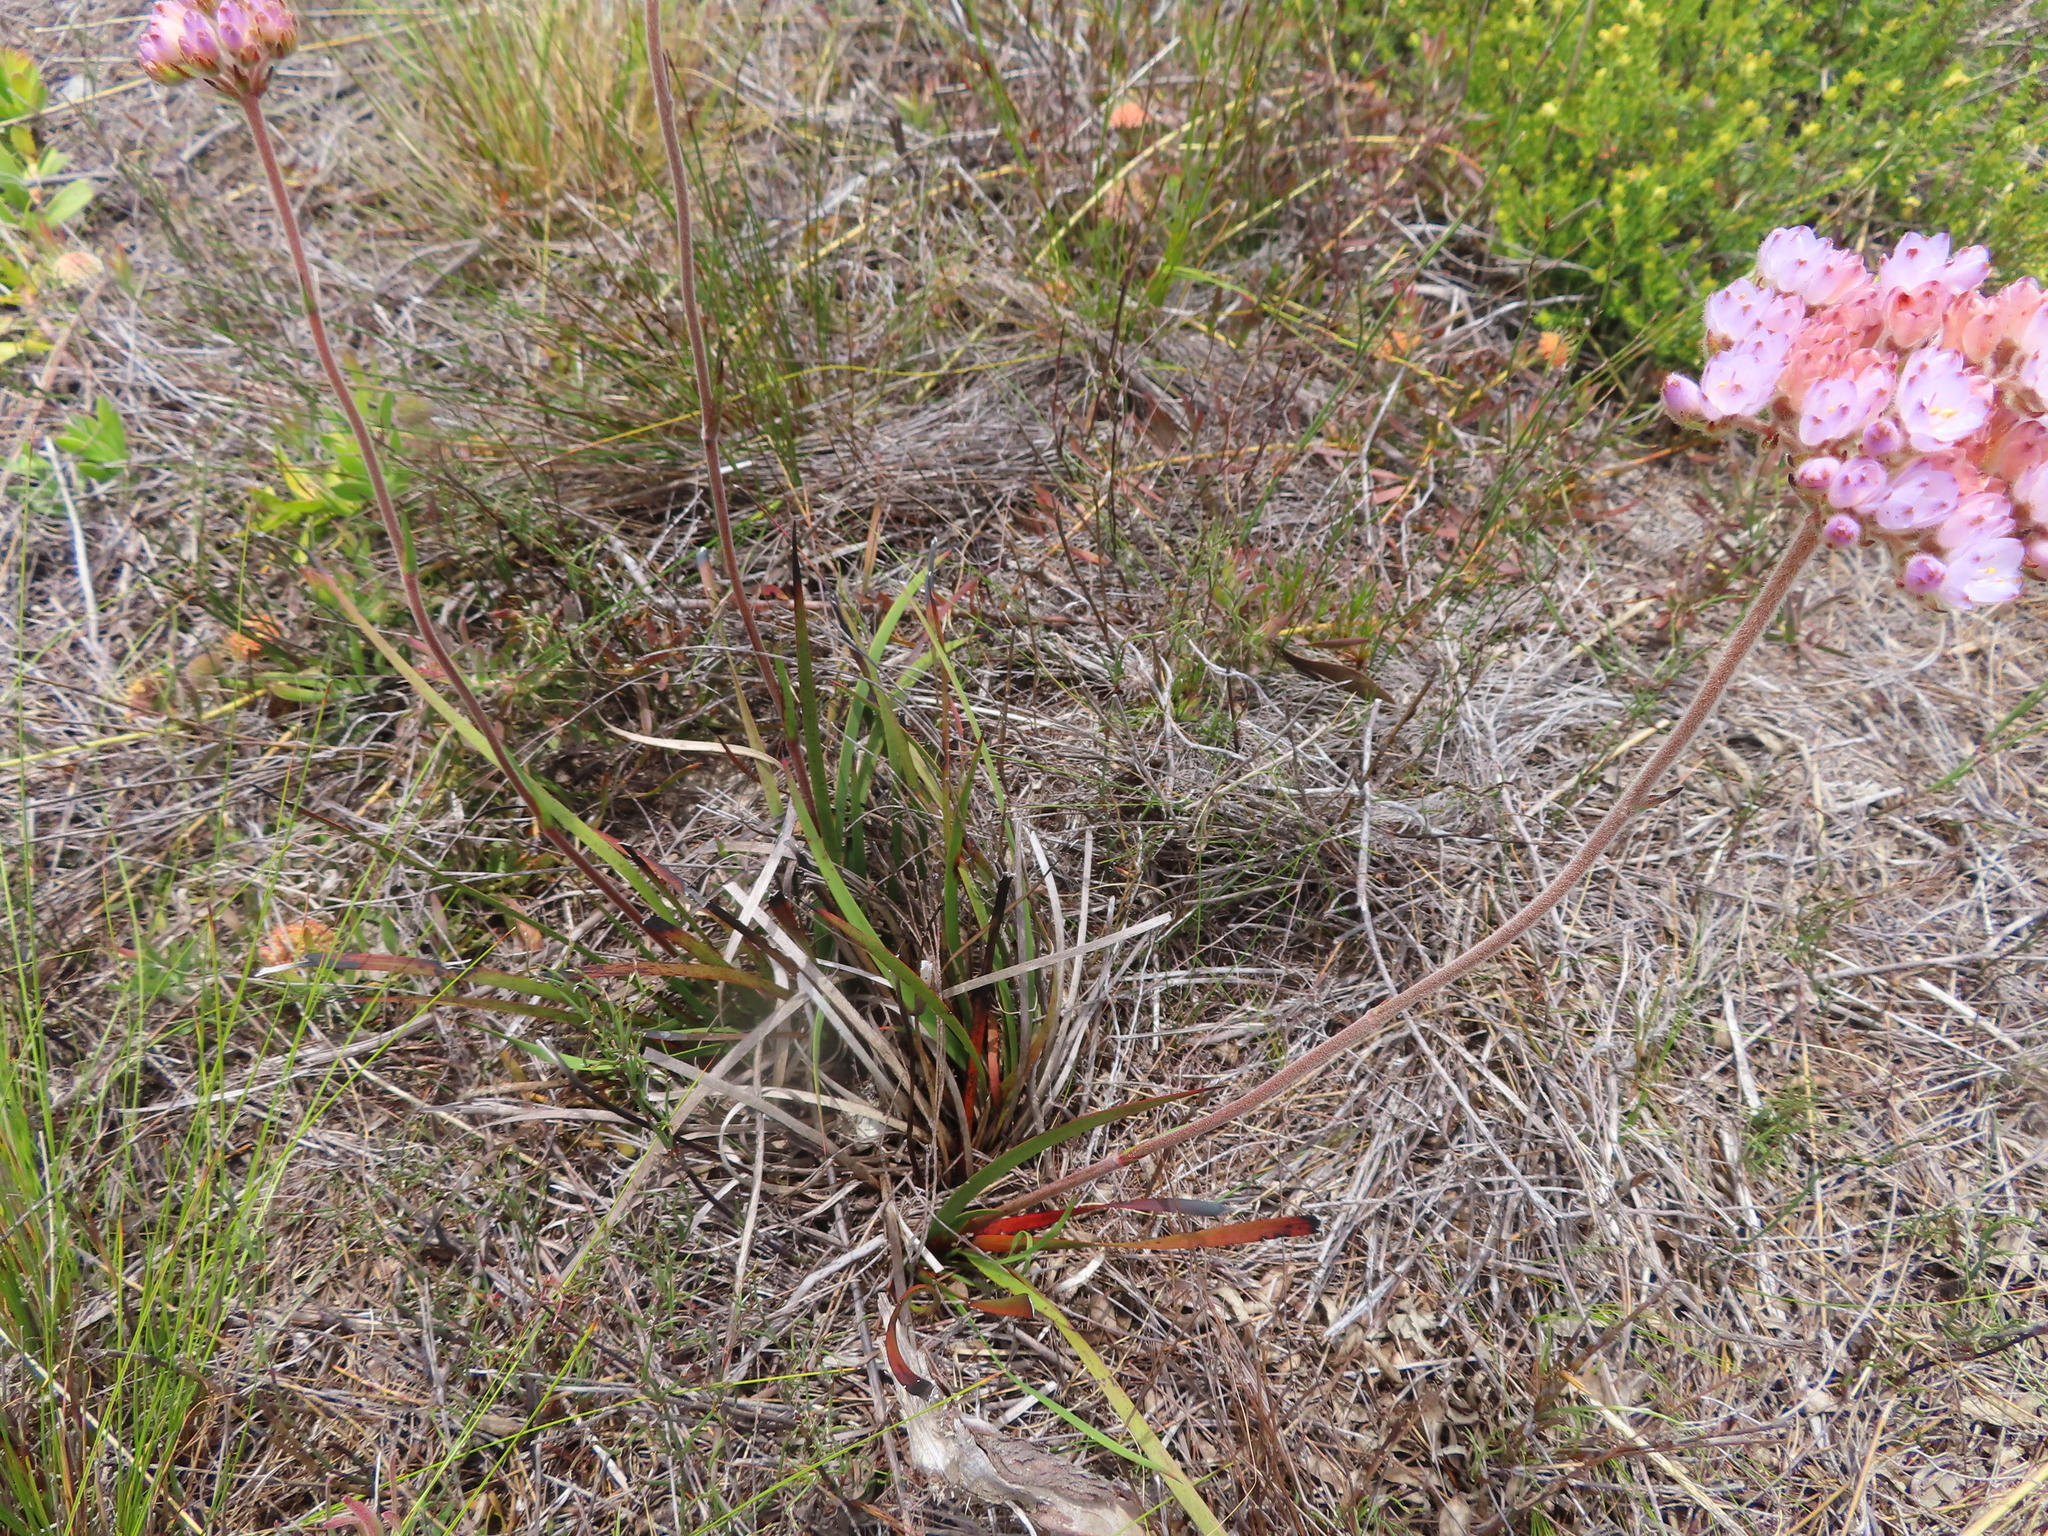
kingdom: Plantae
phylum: Tracheophyta
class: Liliopsida
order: Commelinales
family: Haemodoraceae
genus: Dilatris
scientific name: Dilatris pillansii
